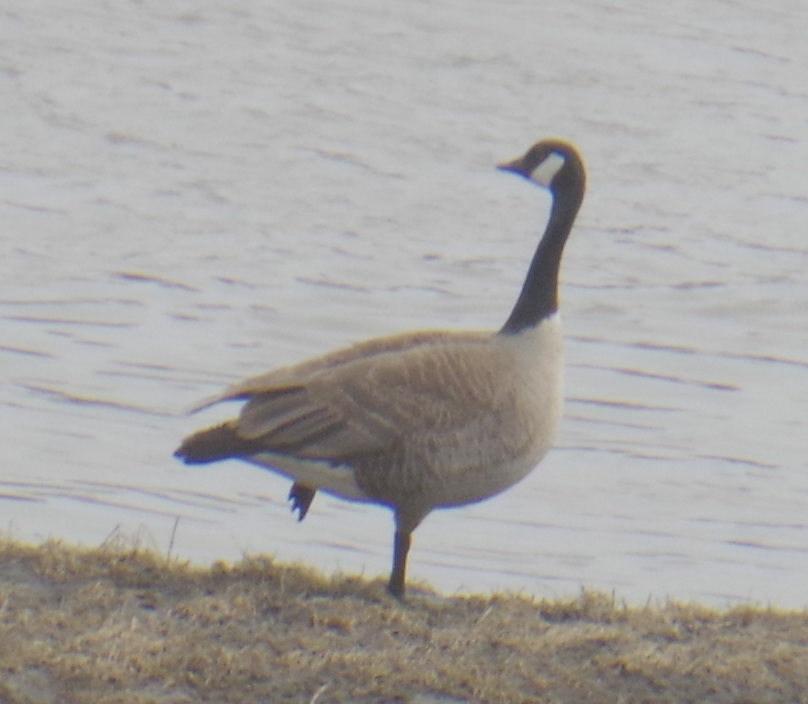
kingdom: Animalia
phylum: Chordata
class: Aves
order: Anseriformes
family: Anatidae
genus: Branta
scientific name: Branta canadensis
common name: Canada goose
